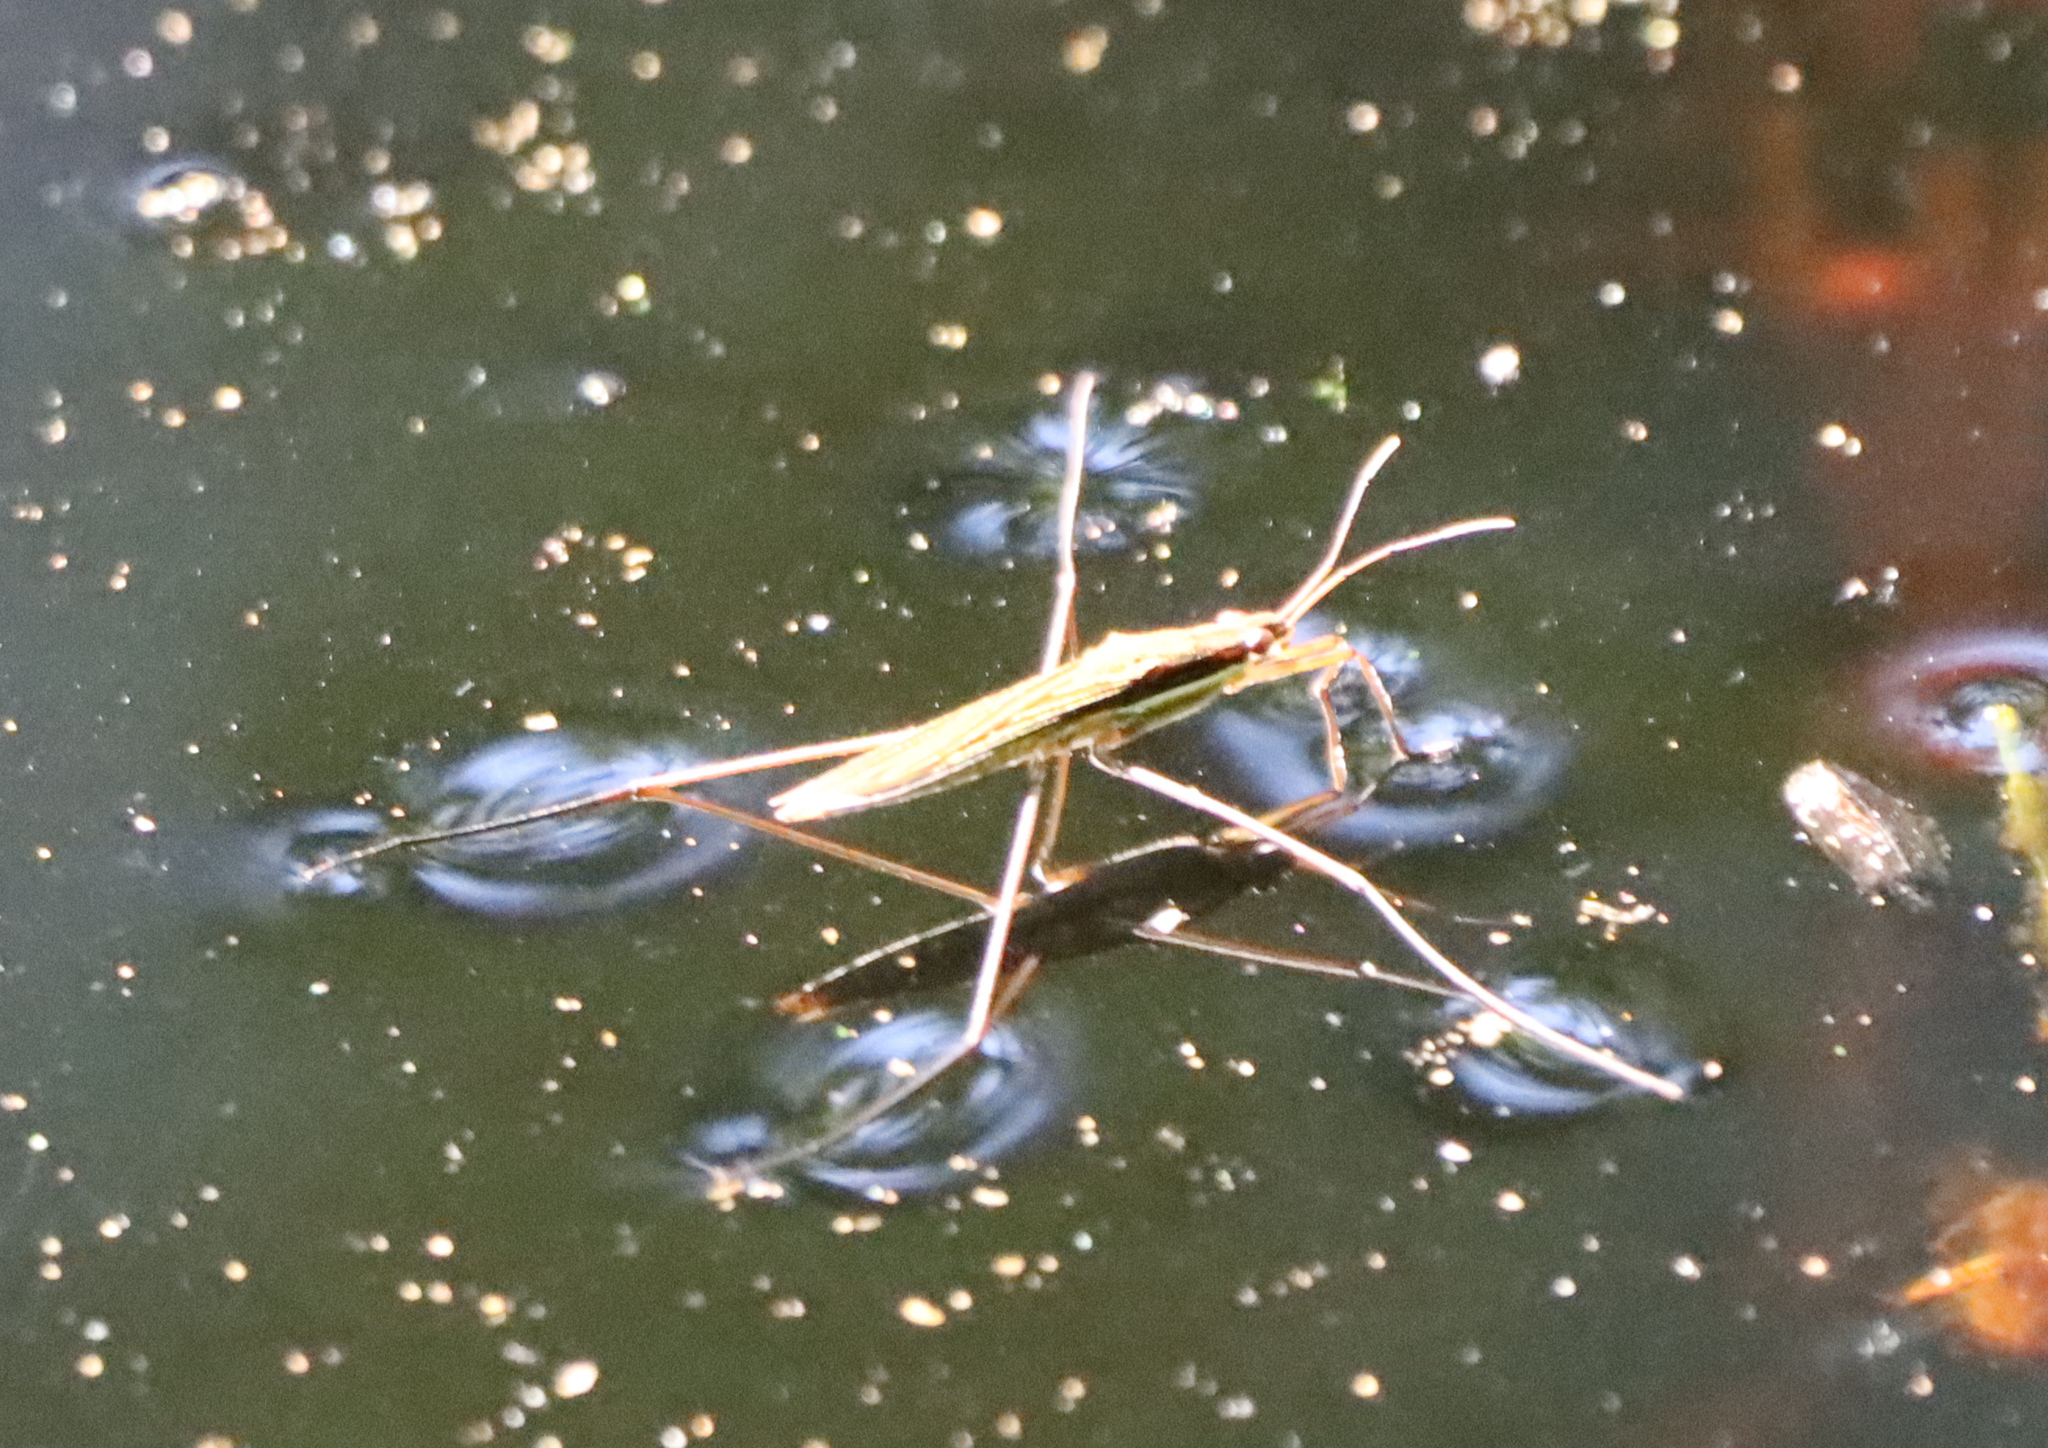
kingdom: Animalia
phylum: Arthropoda
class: Insecta
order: Hemiptera
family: Gerridae
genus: Limnoporus
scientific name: Limnoporus dissortis
